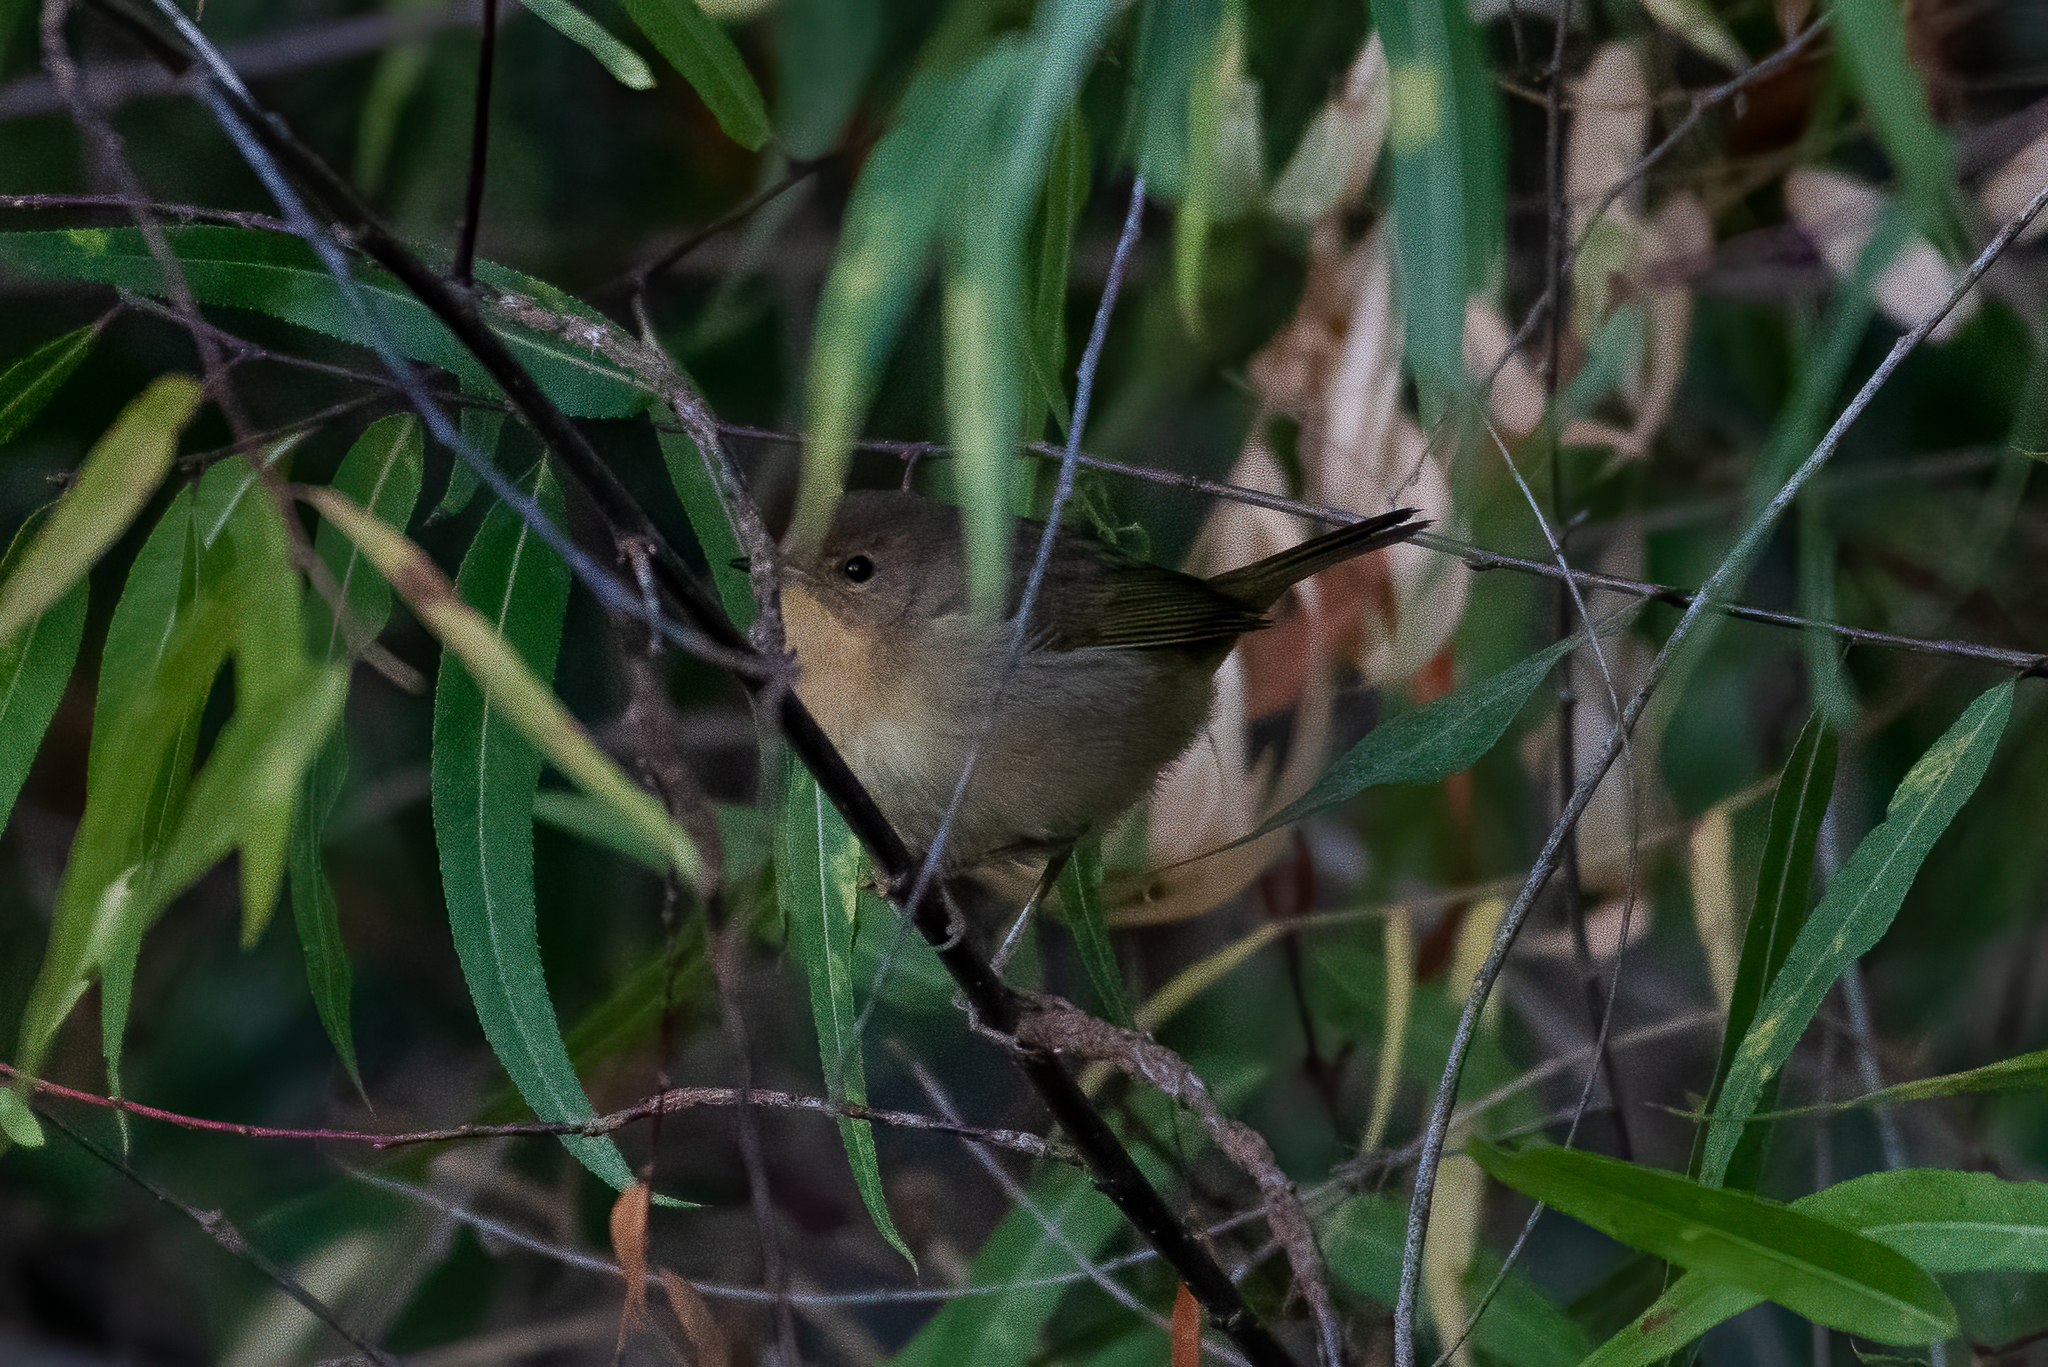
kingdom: Animalia
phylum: Chordata
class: Aves
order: Passeriformes
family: Parulidae
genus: Geothlypis
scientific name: Geothlypis trichas
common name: Common yellowthroat
